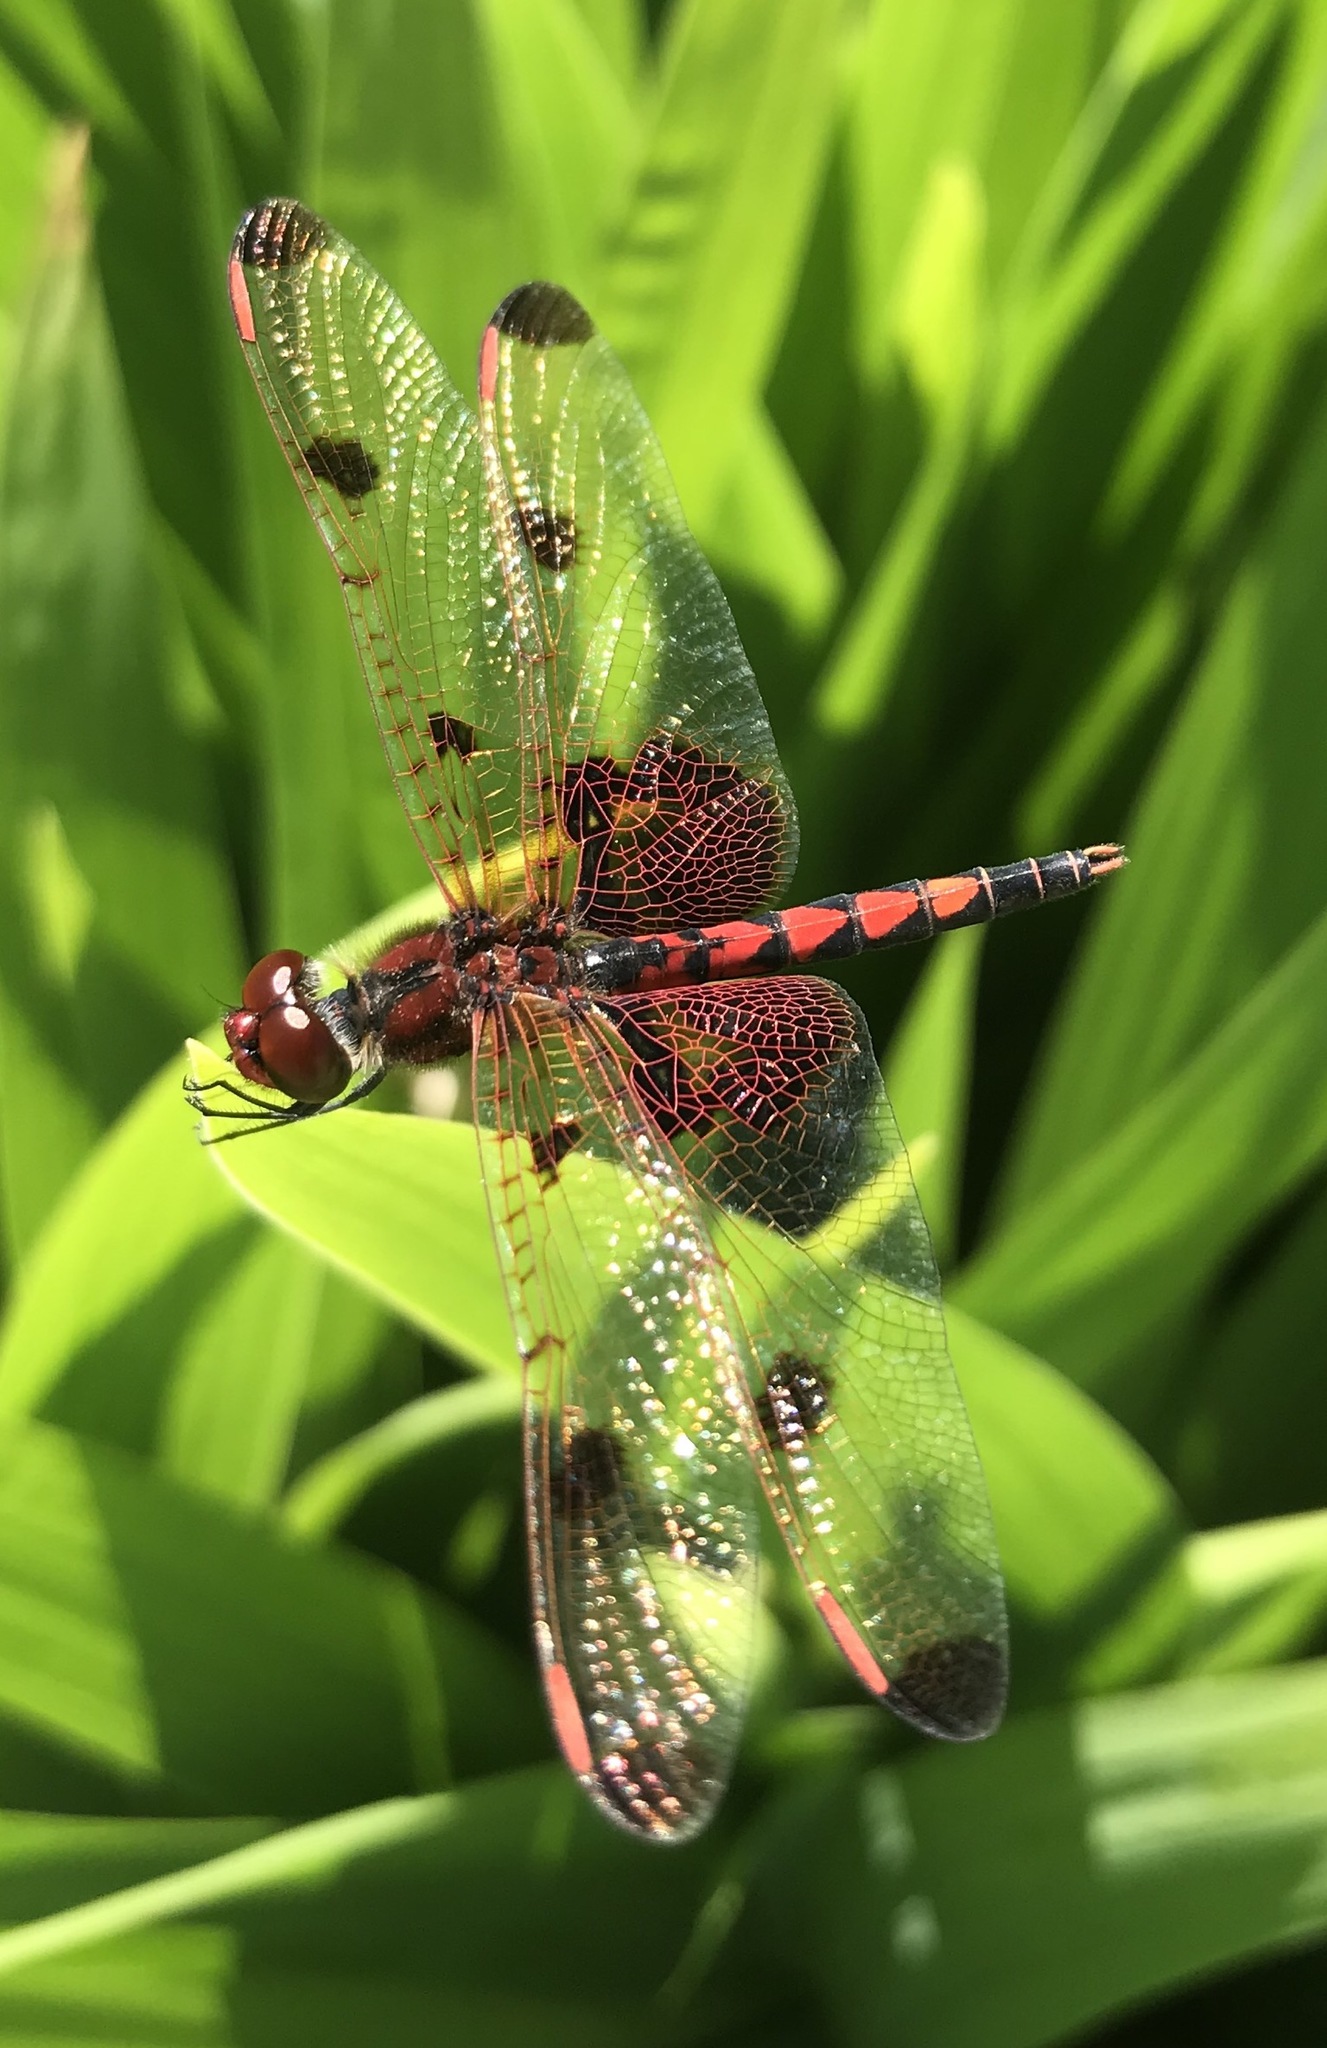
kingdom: Animalia
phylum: Arthropoda
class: Insecta
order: Odonata
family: Libellulidae
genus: Celithemis
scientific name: Celithemis elisa
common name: Calico pennant
